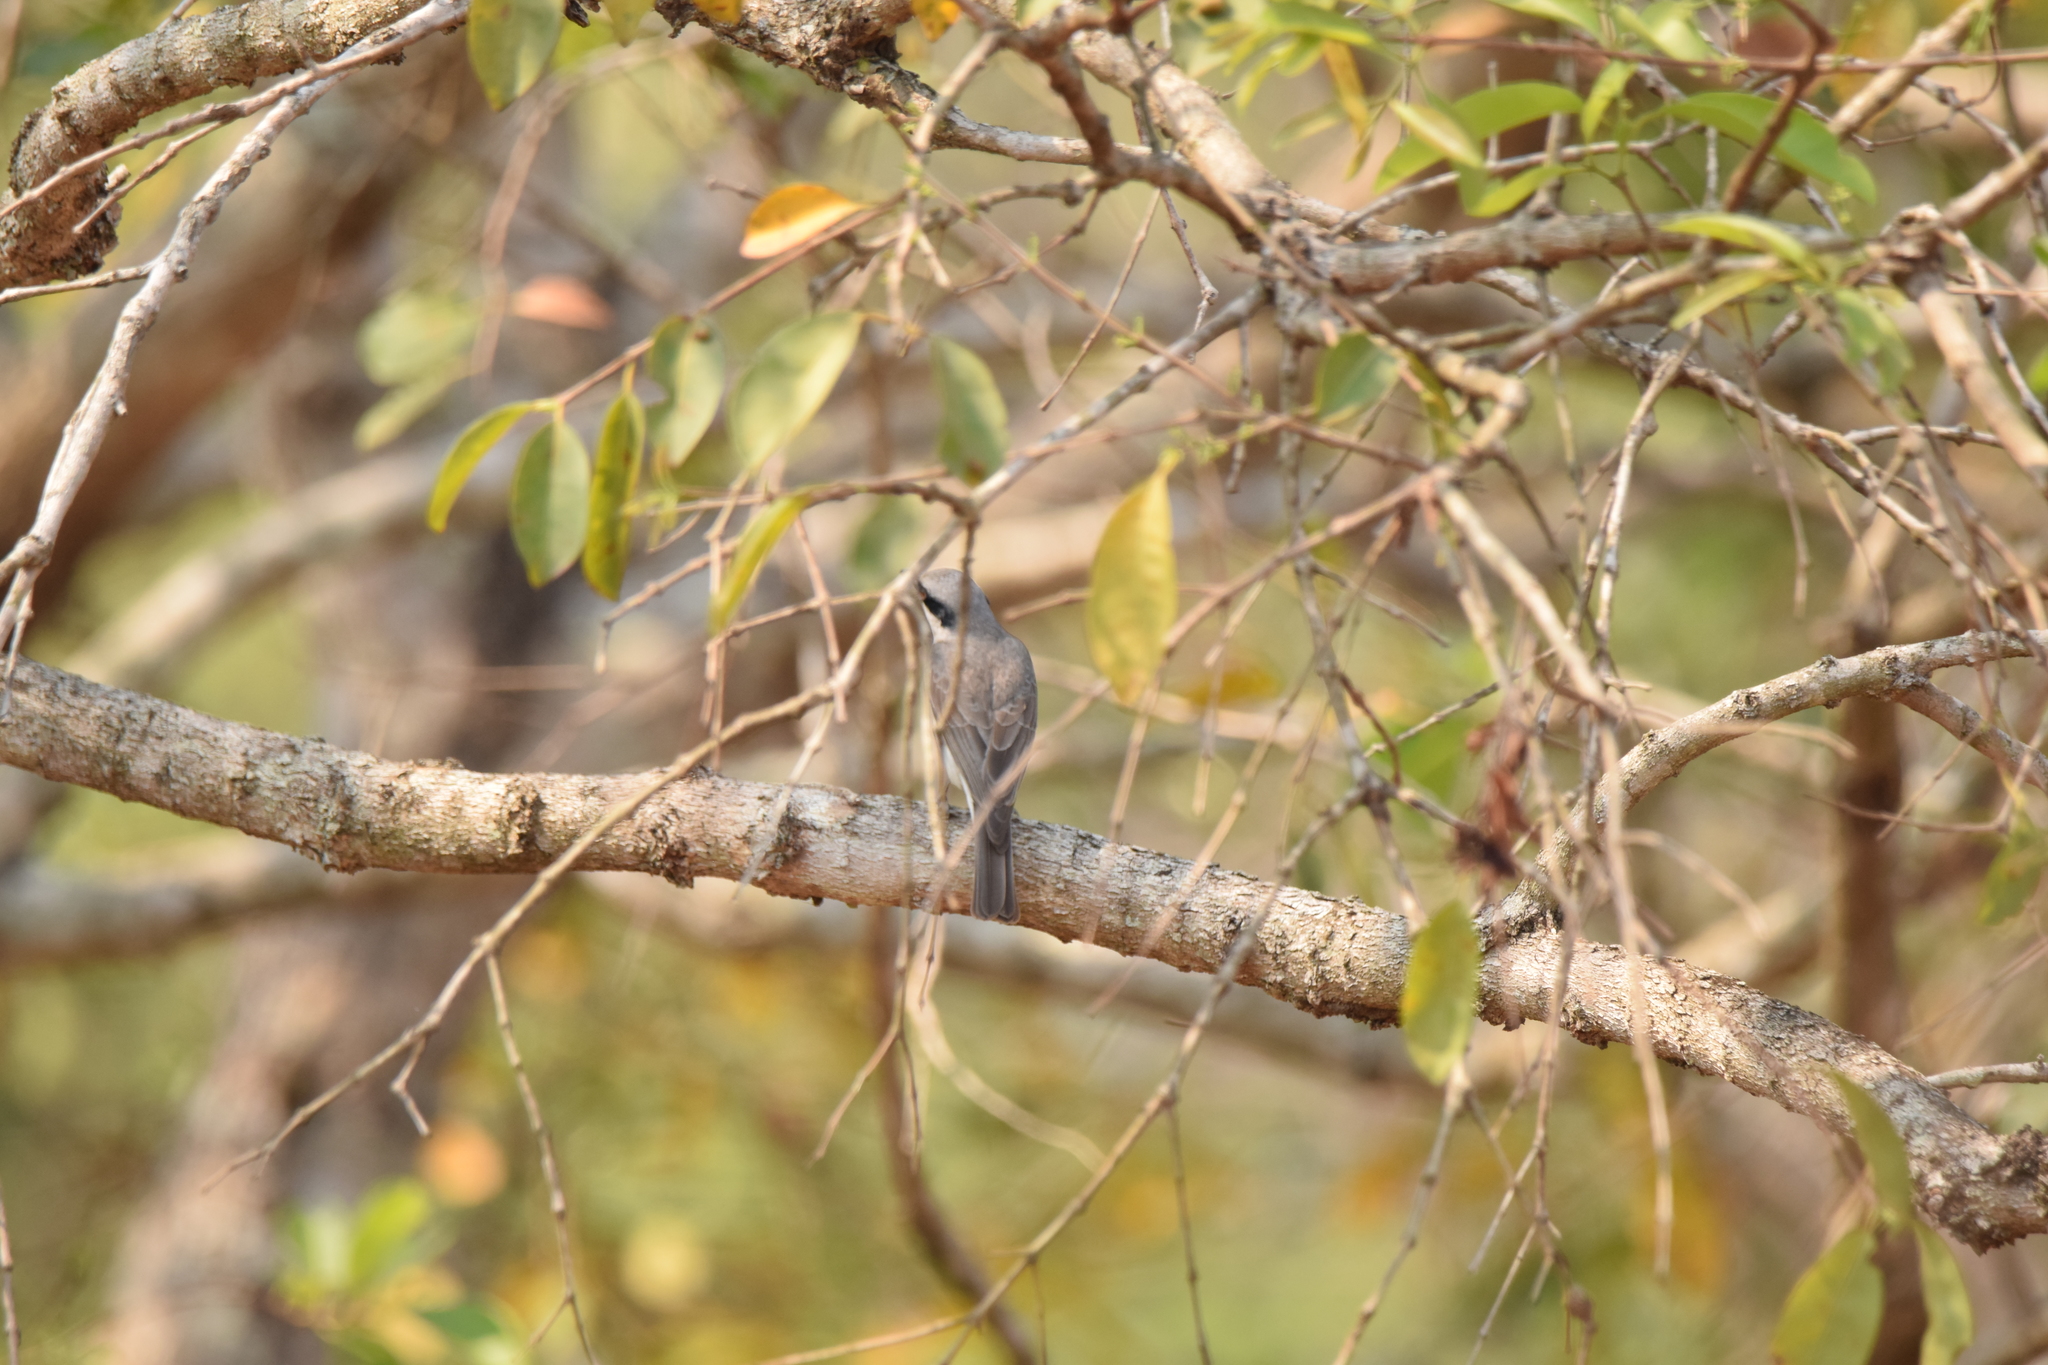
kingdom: Animalia
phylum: Chordata
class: Aves
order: Passeriformes
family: Tephrodornithidae
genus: Tephrodornis
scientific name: Tephrodornis virgatus
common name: Large woodshrike
